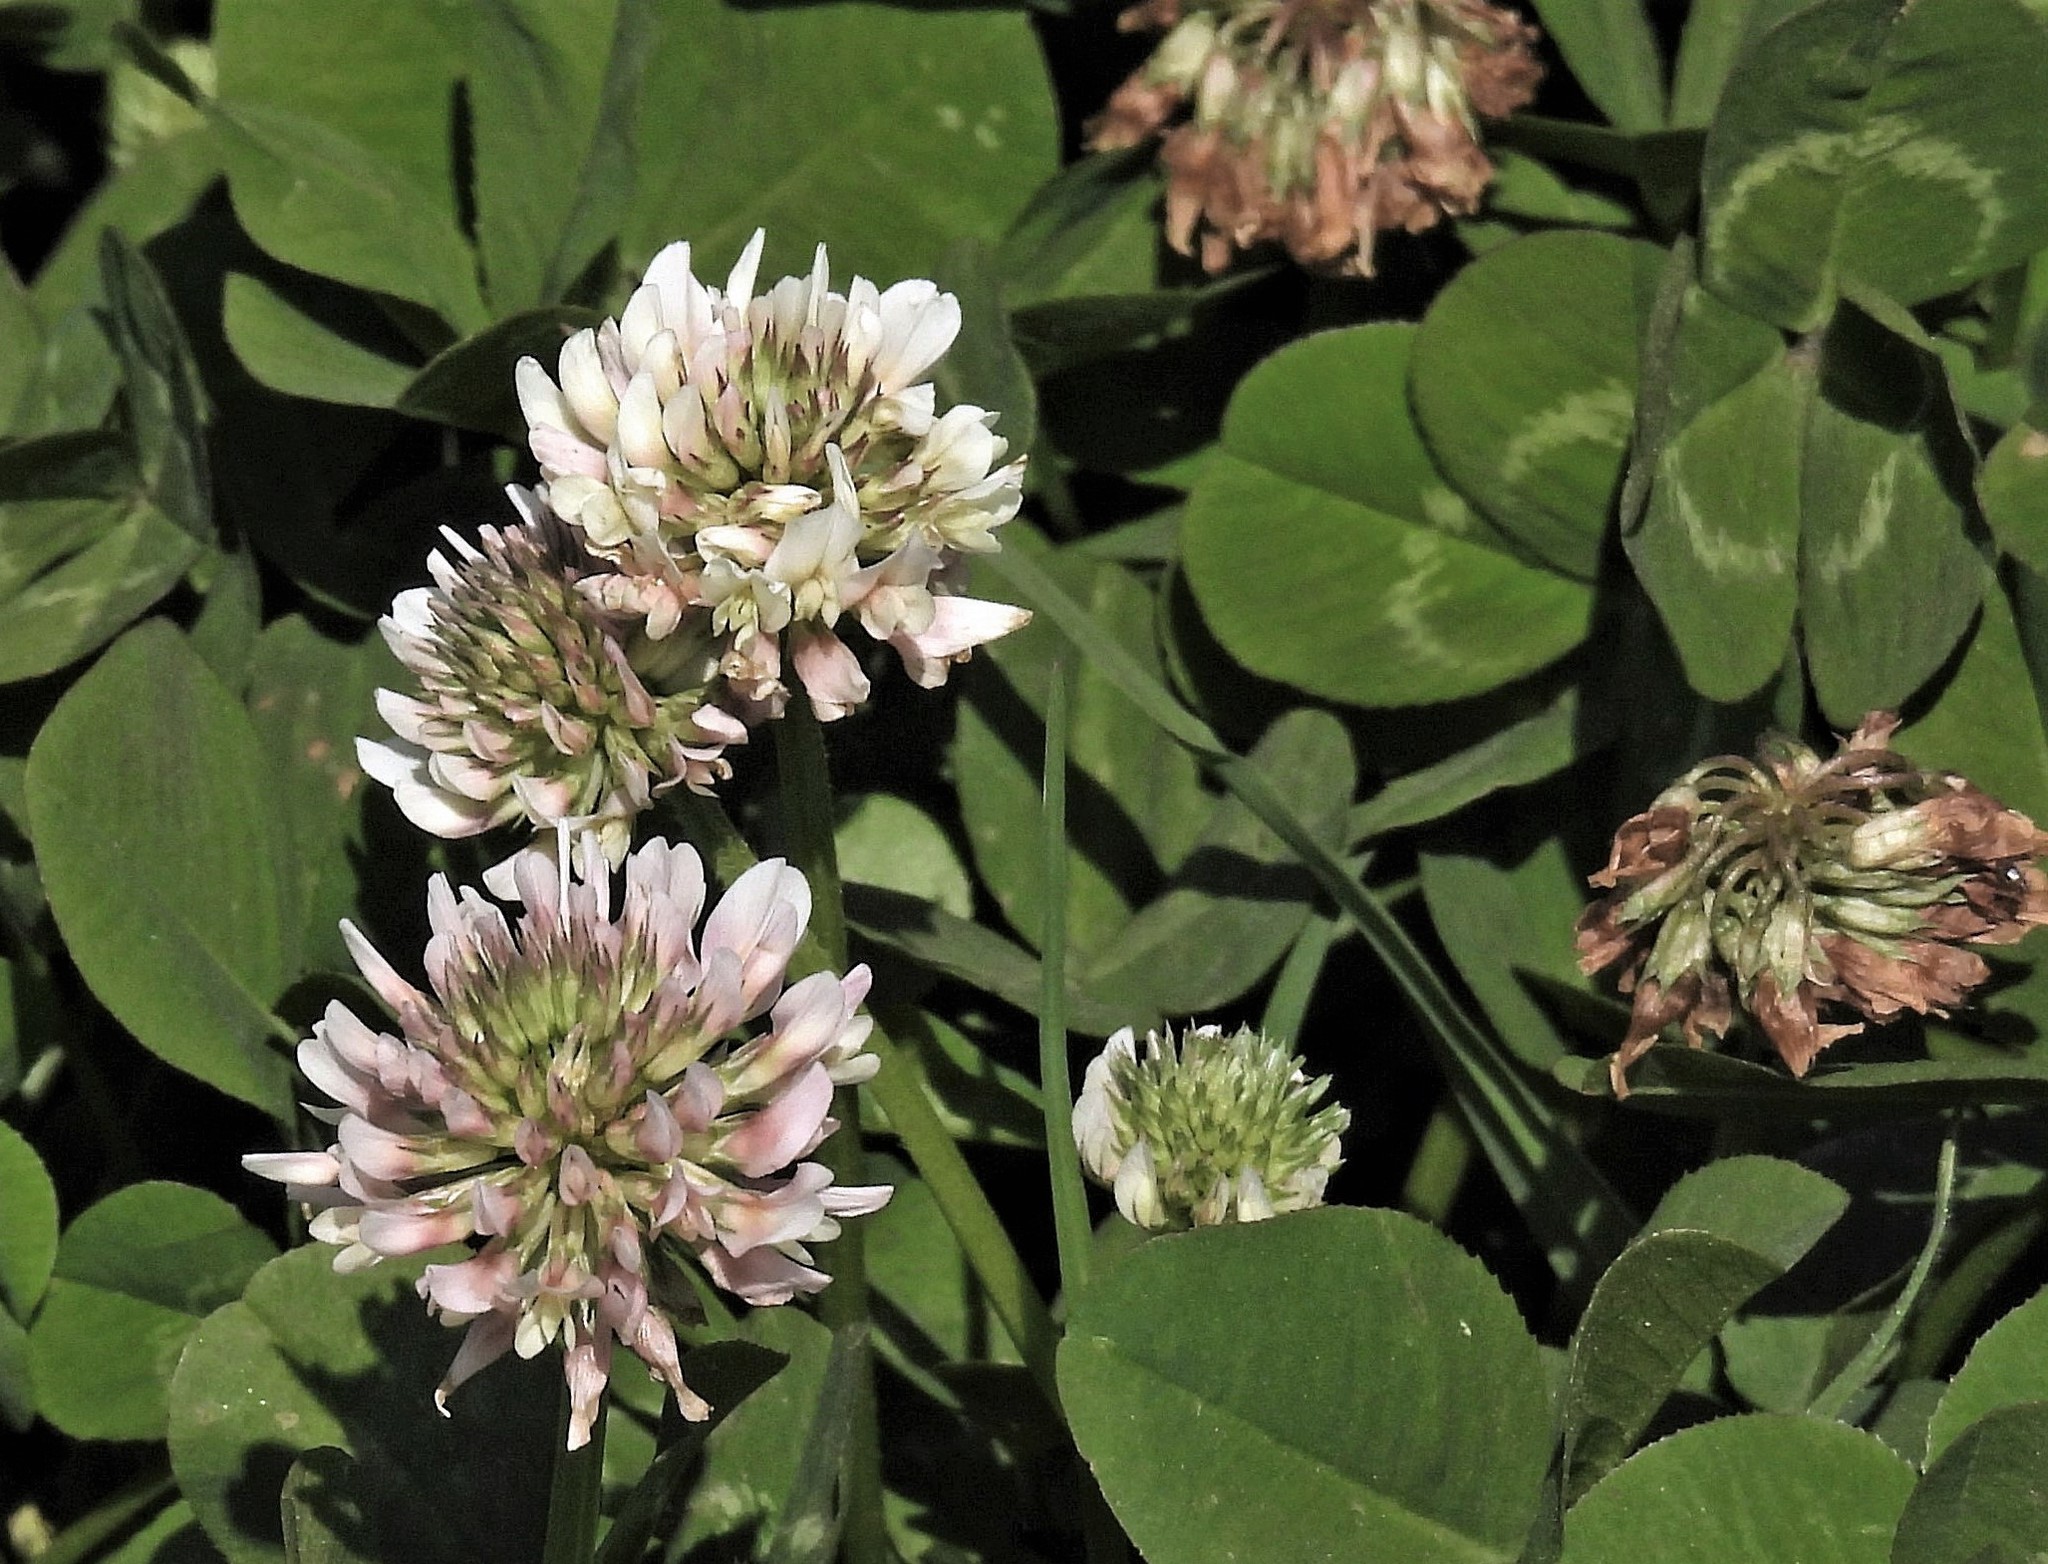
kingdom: Plantae
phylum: Tracheophyta
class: Magnoliopsida
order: Fabales
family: Fabaceae
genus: Trifolium
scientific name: Trifolium repens
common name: White clover
